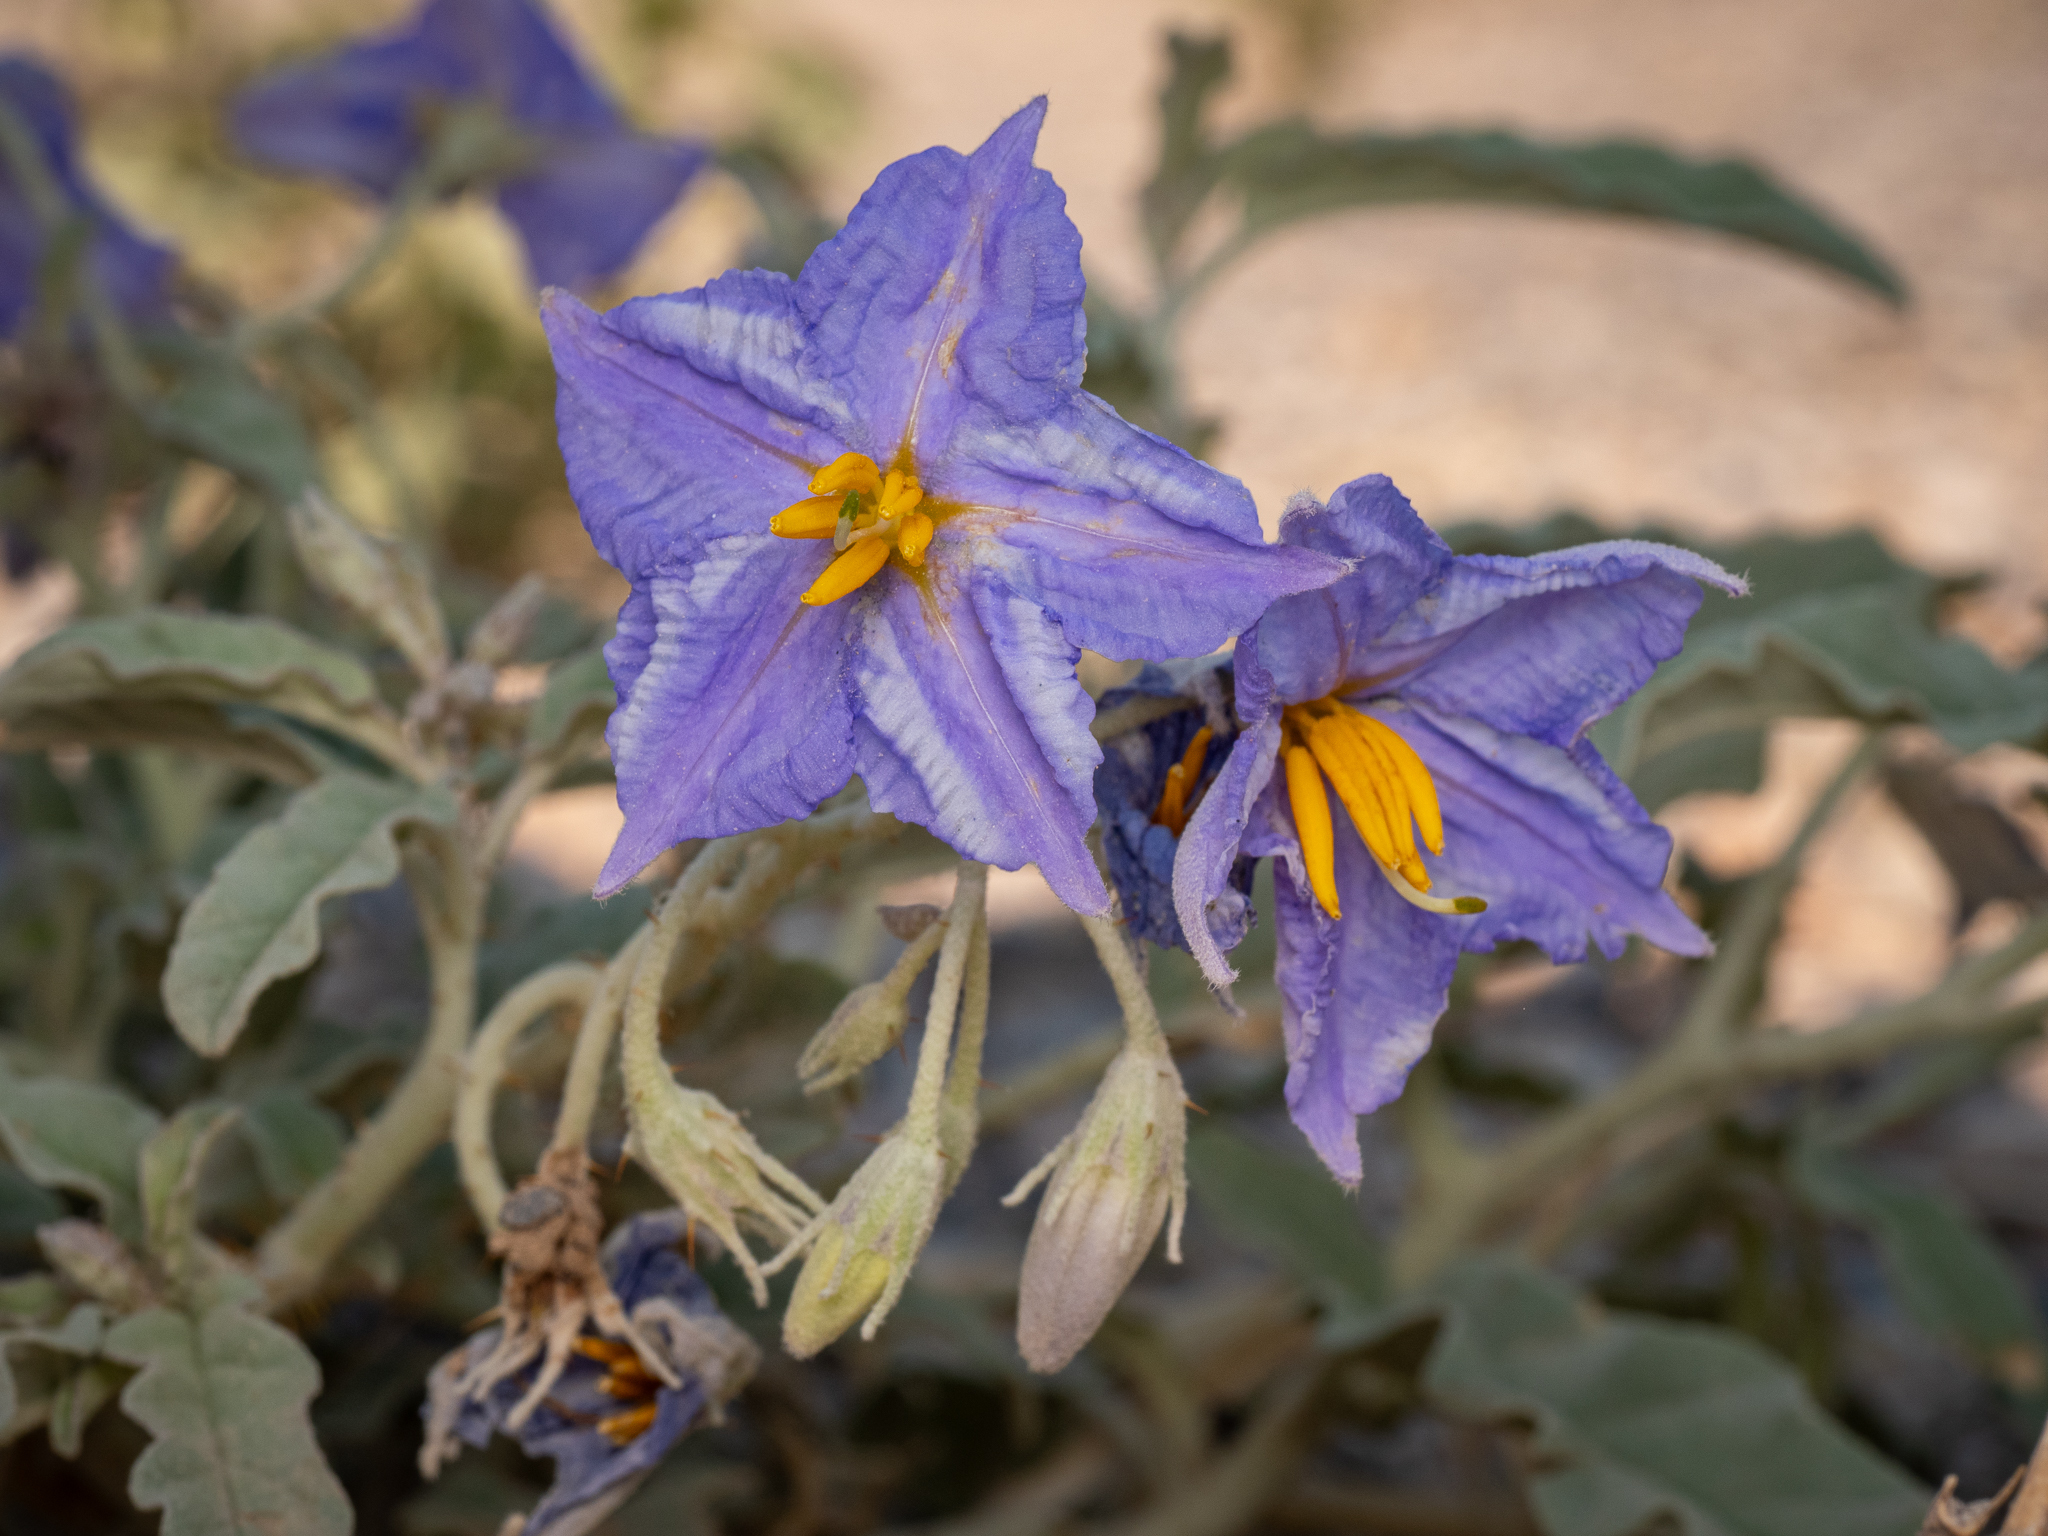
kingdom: Plantae
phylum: Tracheophyta
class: Magnoliopsida
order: Solanales
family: Solanaceae
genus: Solanum
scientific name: Solanum elaeagnifolium
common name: Silverleaf nightshade
